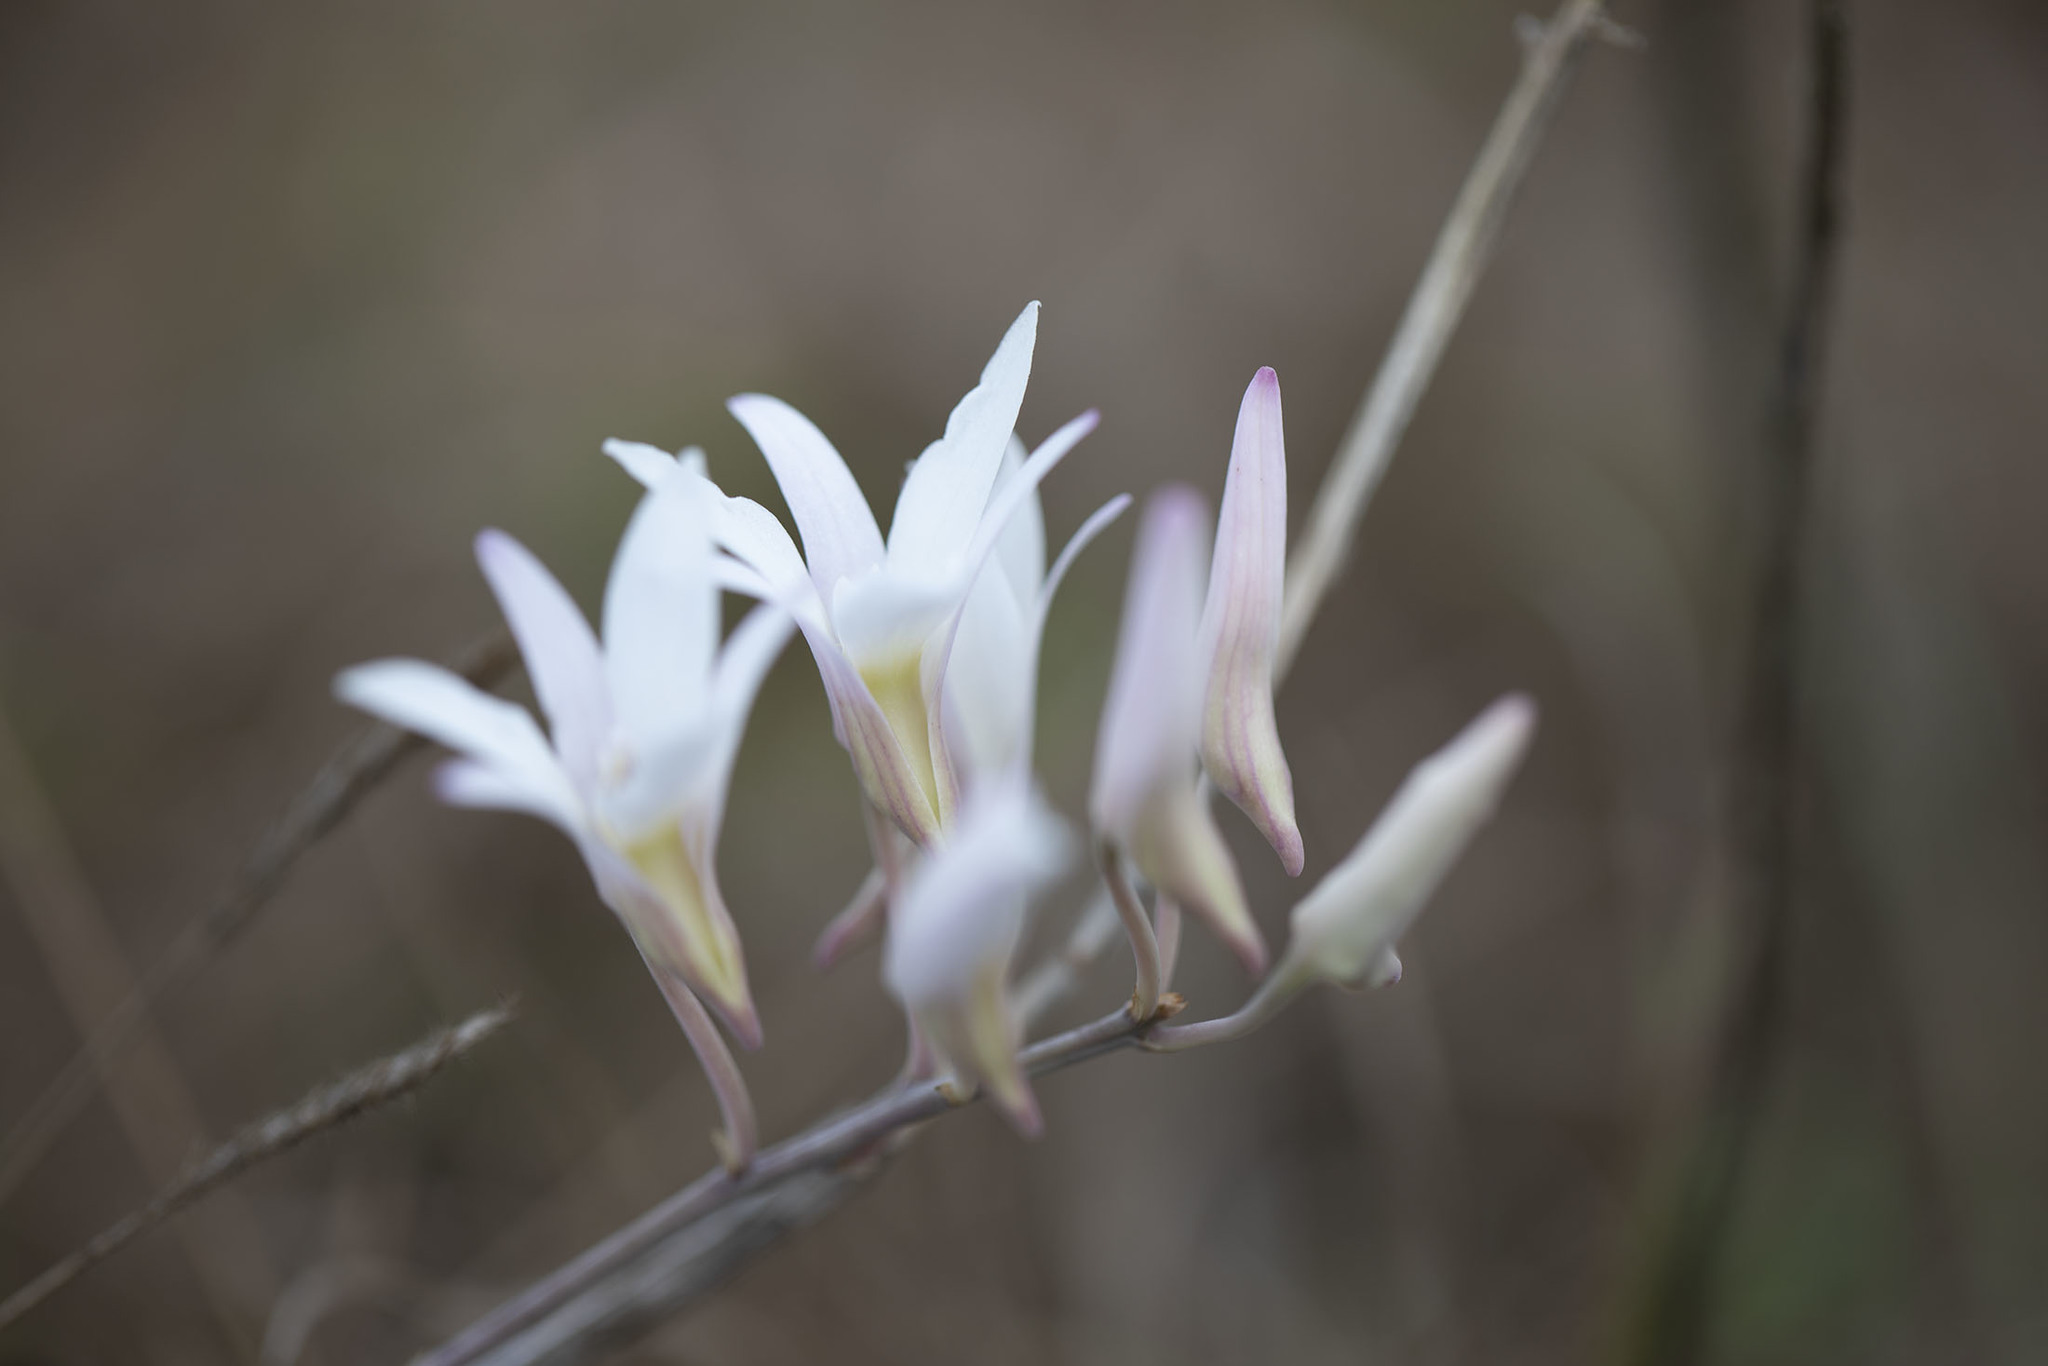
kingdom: Plantae
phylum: Tracheophyta
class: Liliopsida
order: Asparagales
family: Orchidaceae
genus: Dendrobium
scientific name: Dendrobium barbatulum
